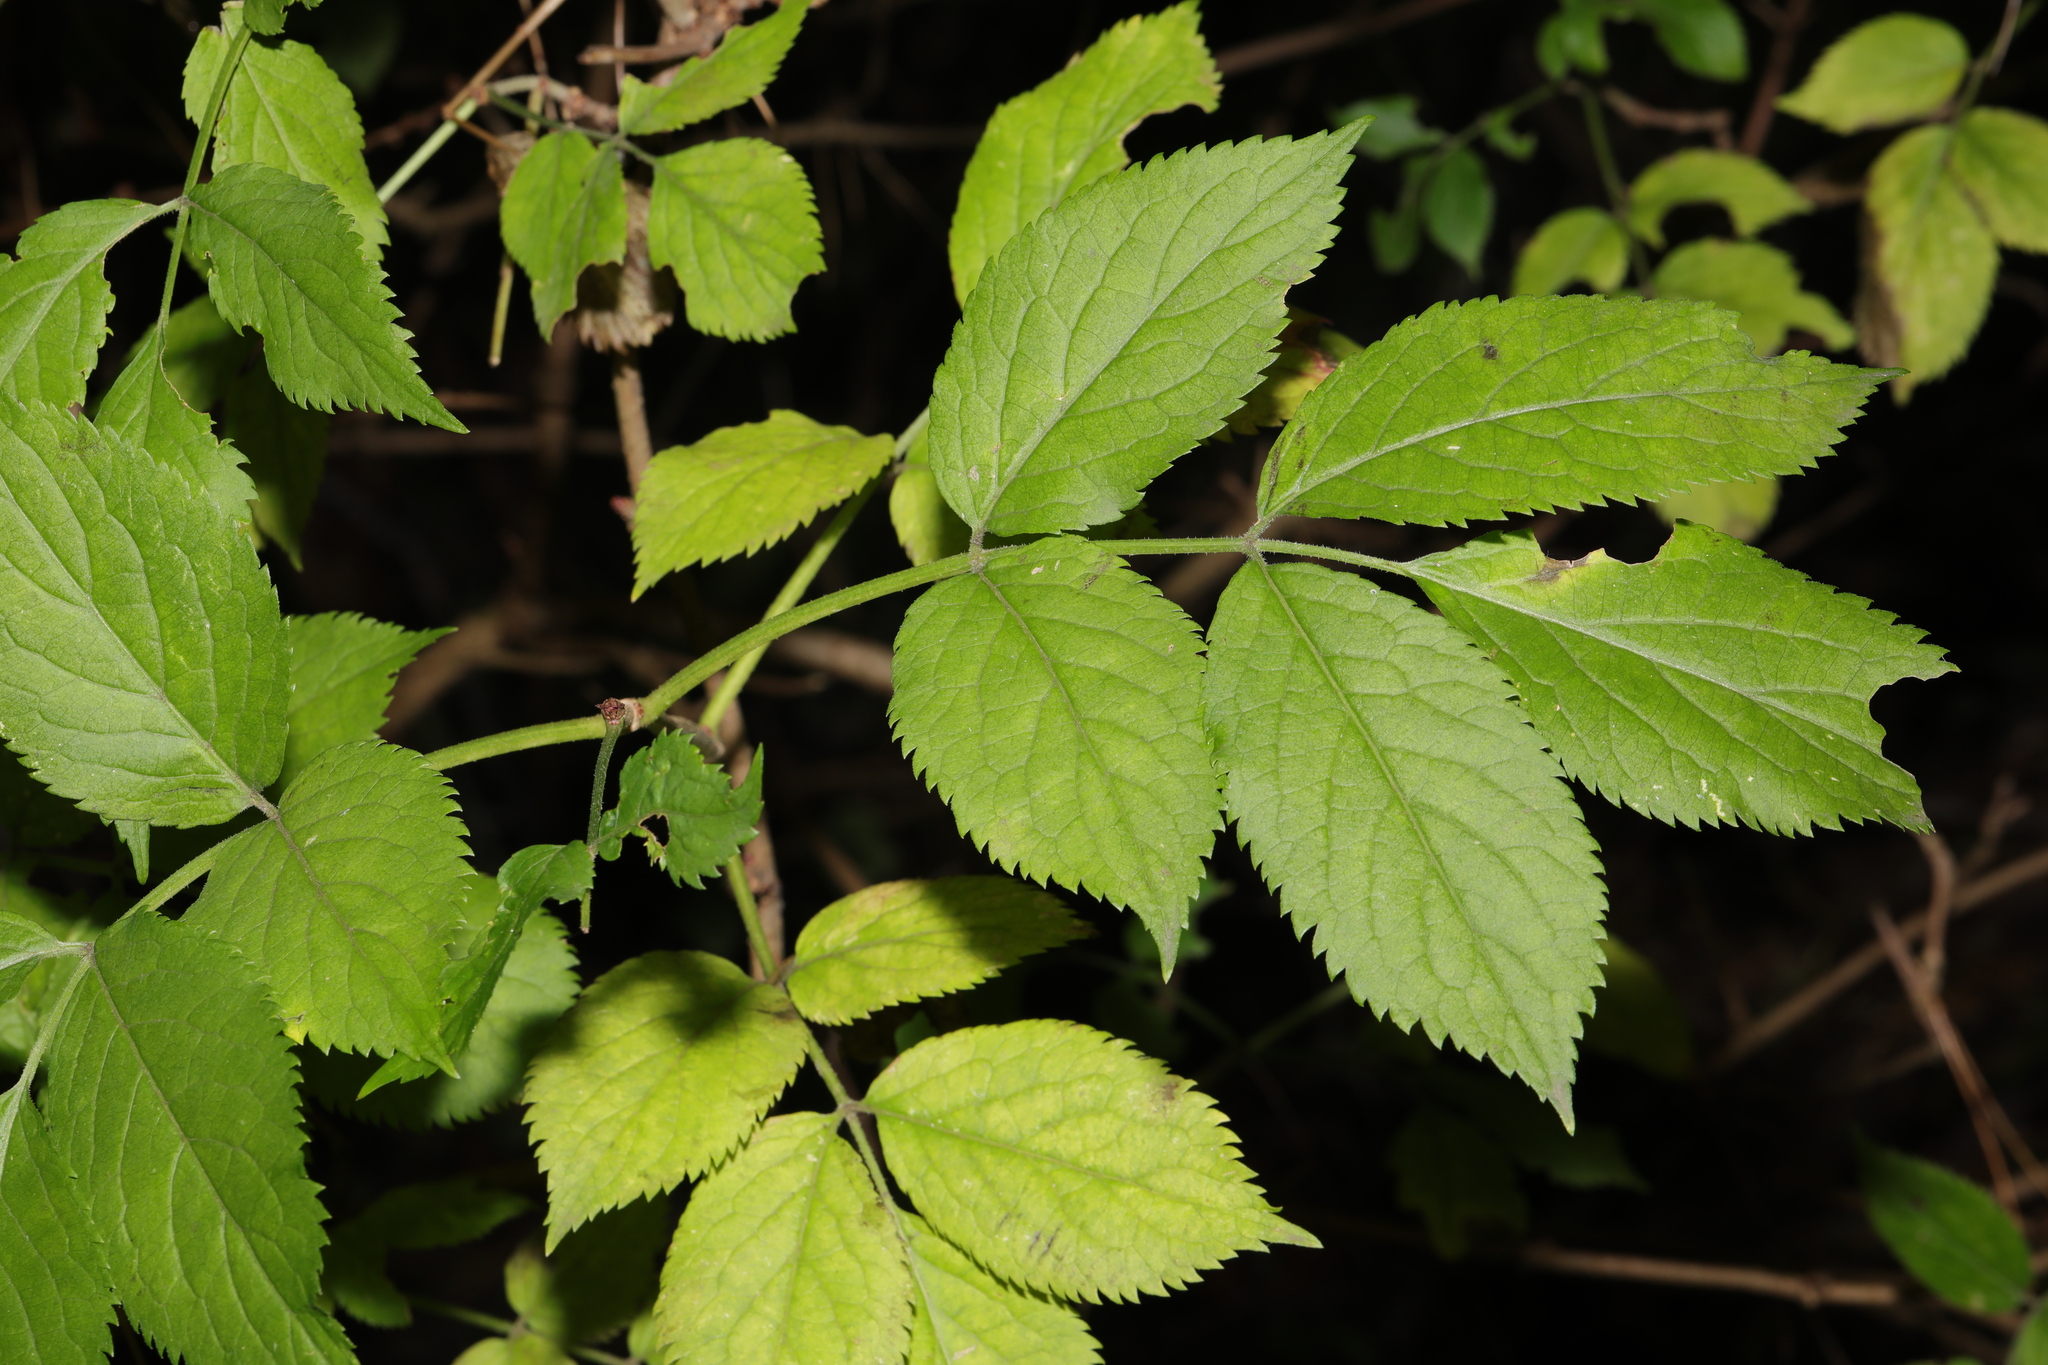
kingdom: Plantae
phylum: Tracheophyta
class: Magnoliopsida
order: Dipsacales
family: Viburnaceae
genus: Sambucus
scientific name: Sambucus nigra
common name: Elder
